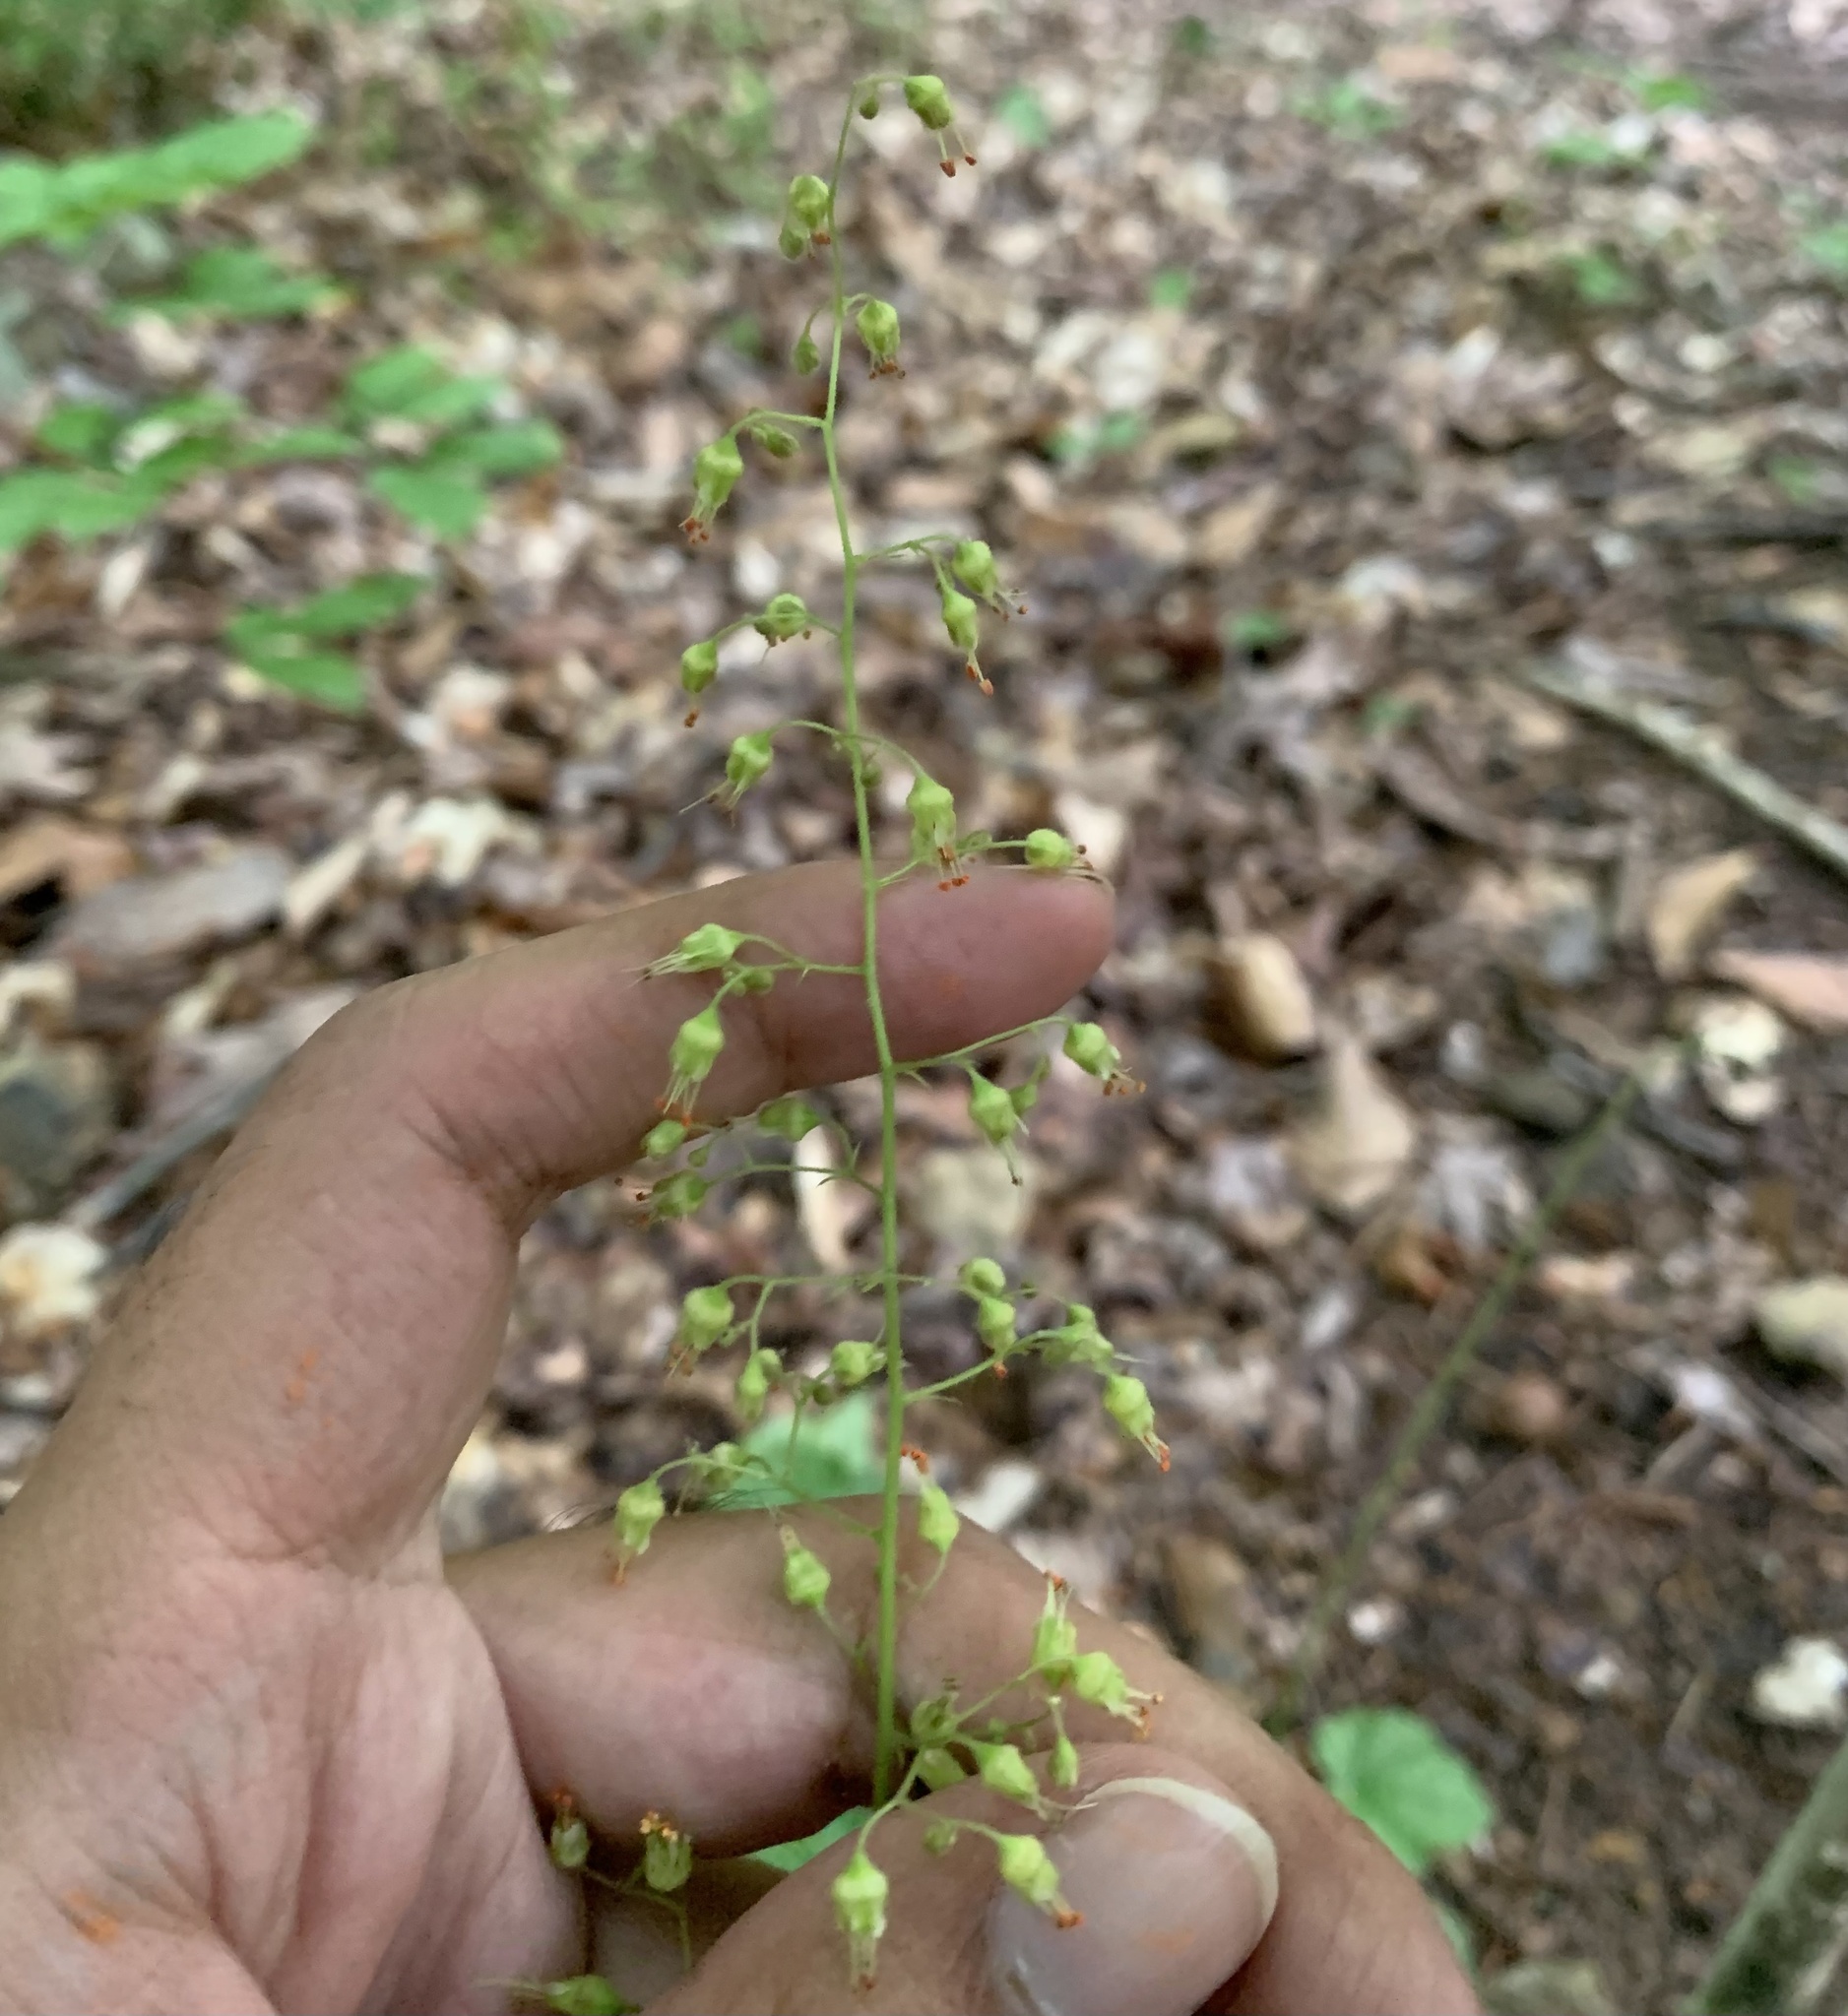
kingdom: Plantae
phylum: Tracheophyta
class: Magnoliopsida
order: Saxifragales
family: Saxifragaceae
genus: Heuchera
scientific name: Heuchera americana
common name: Alumroot
